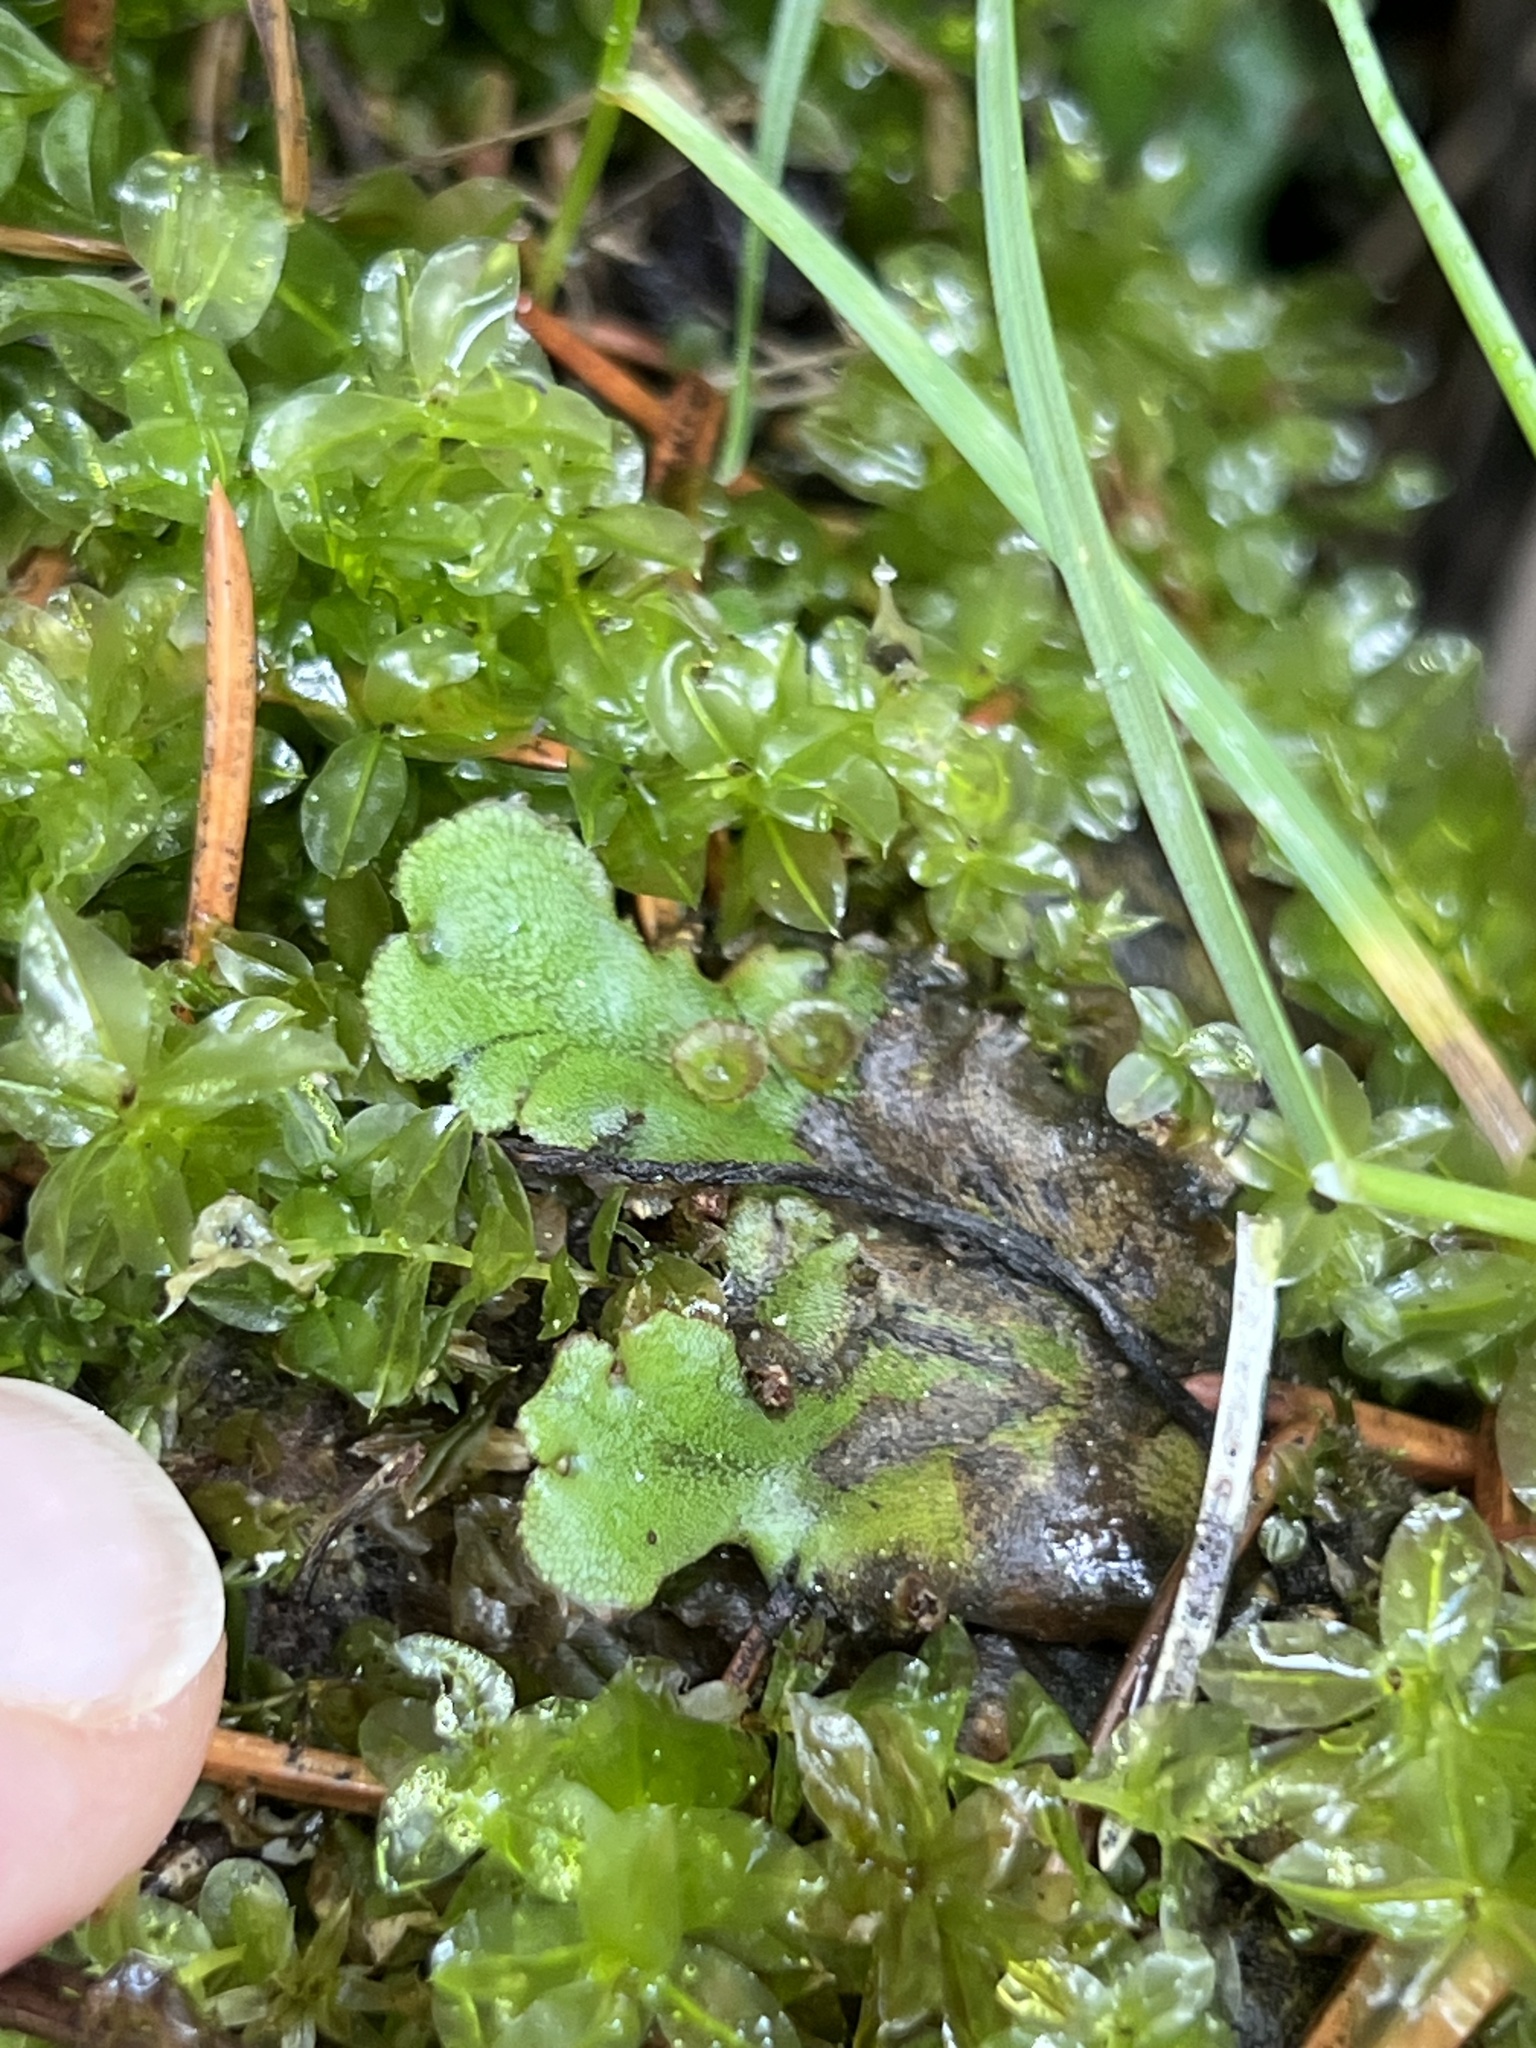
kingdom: Plantae
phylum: Marchantiophyta
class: Marchantiopsida
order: Marchantiales
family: Marchantiaceae
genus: Marchantia
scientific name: Marchantia polymorpha
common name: Common liverwort
